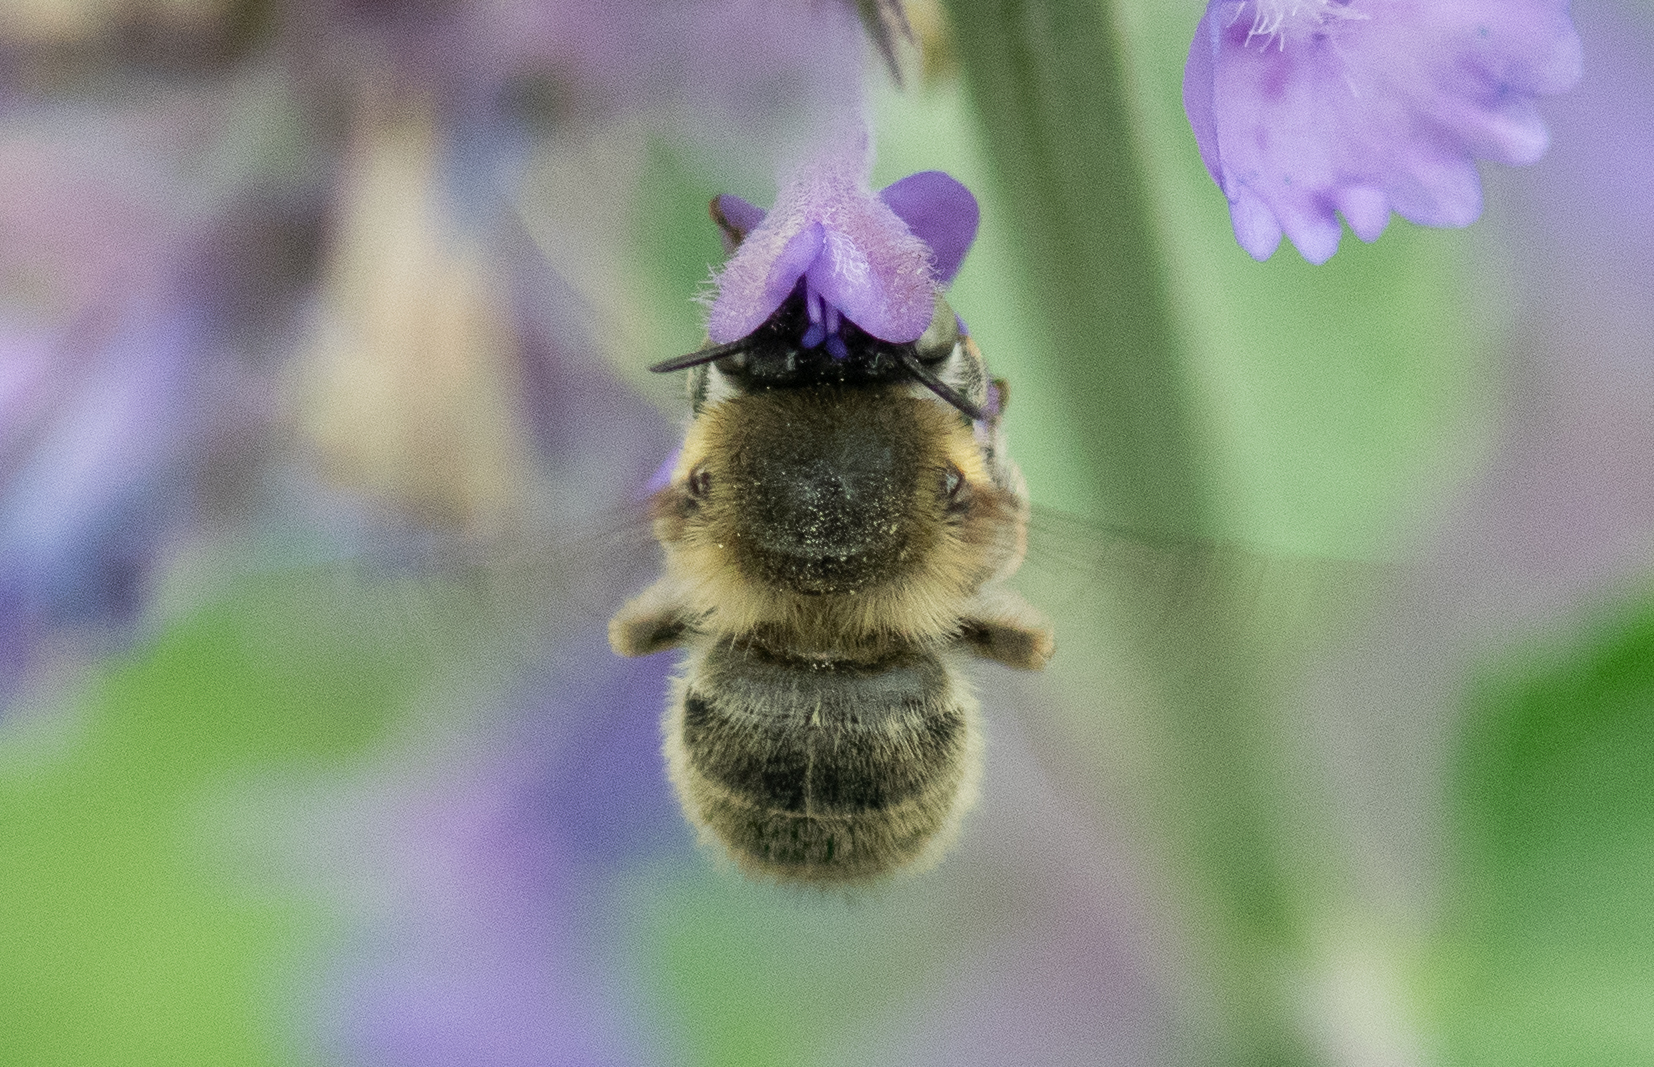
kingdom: Animalia
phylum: Arthropoda
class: Insecta
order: Hymenoptera
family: Apidae
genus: Anthophora
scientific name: Anthophora quadrimaculata
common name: Four-banded flower bee
